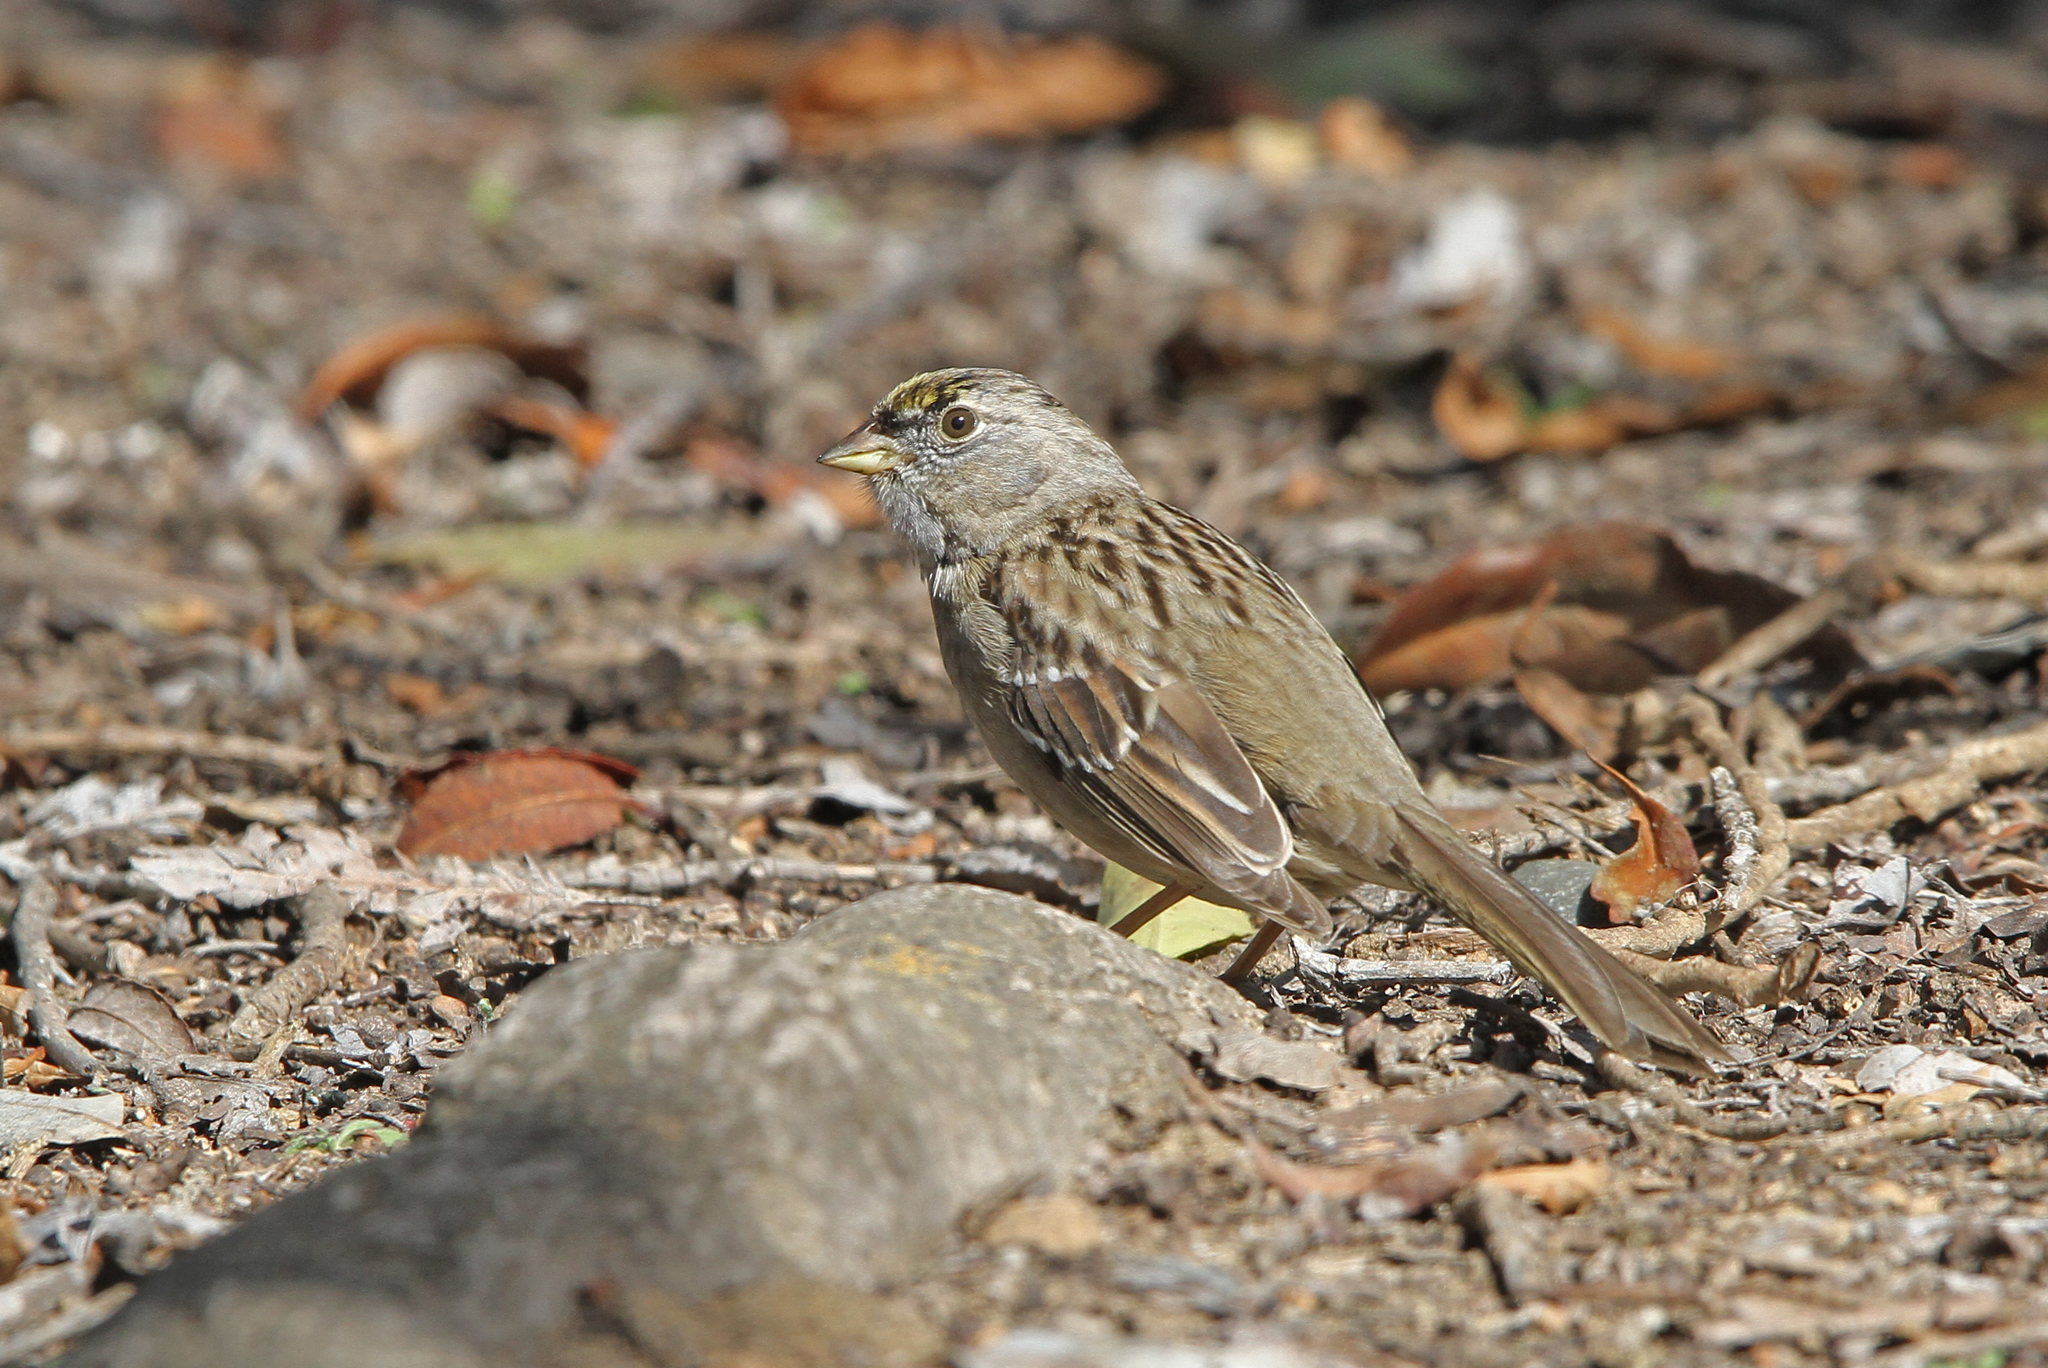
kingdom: Animalia
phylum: Chordata
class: Aves
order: Passeriformes
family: Passerellidae
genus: Zonotrichia
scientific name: Zonotrichia atricapilla
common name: Golden-crowned sparrow
